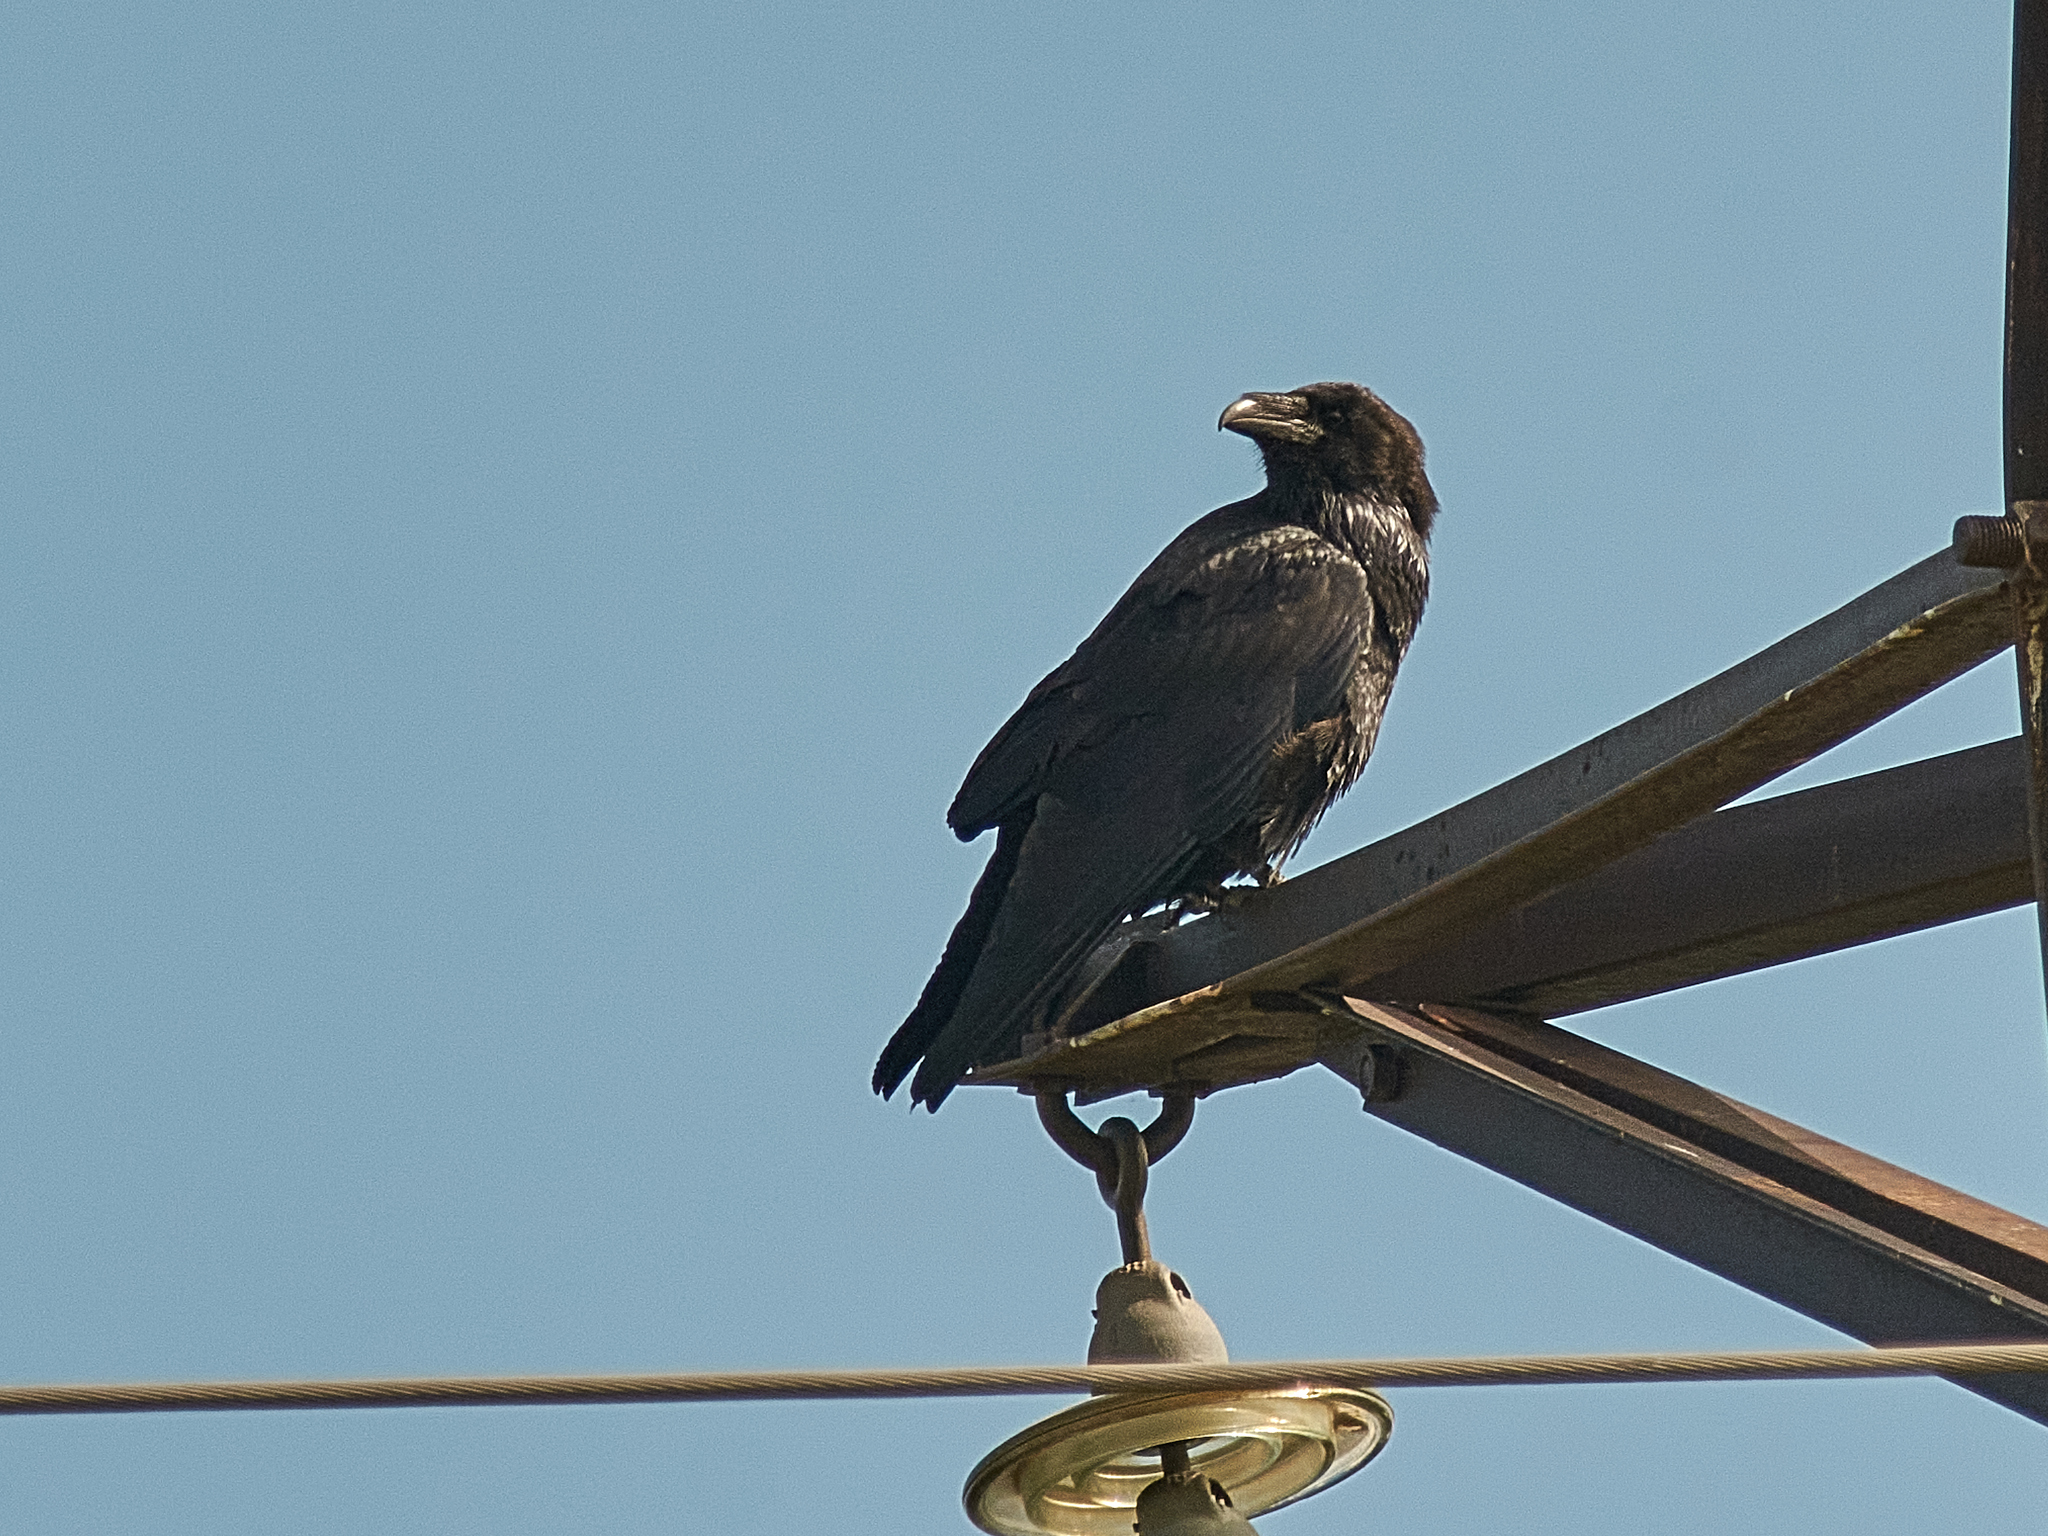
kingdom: Animalia
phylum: Chordata
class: Aves
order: Passeriformes
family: Corvidae
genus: Corvus
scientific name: Corvus corax
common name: Common raven
